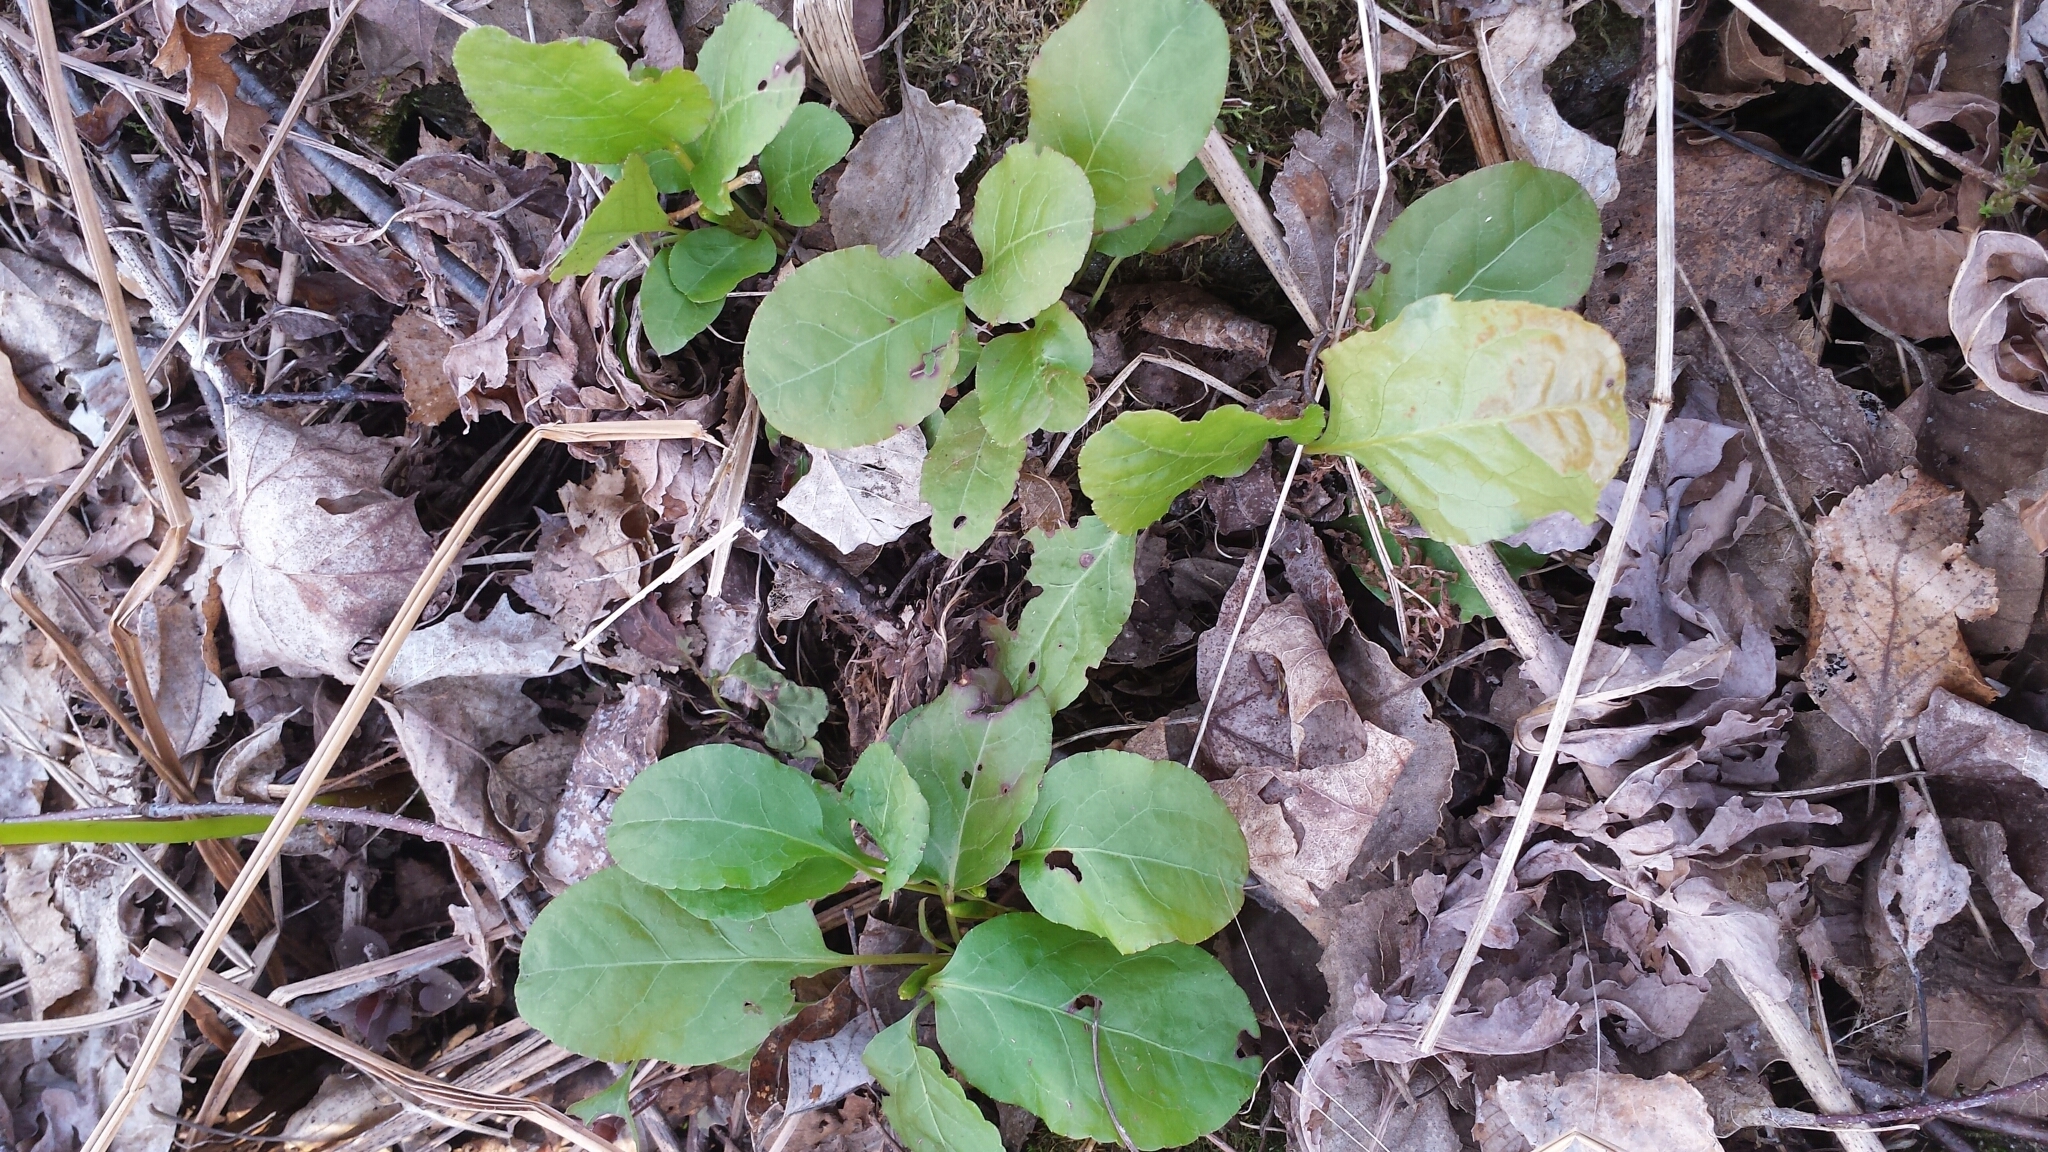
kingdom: Plantae
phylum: Tracheophyta
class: Magnoliopsida
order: Ericales
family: Ericaceae
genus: Pyrola
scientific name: Pyrola elliptica
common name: Shinleaf
